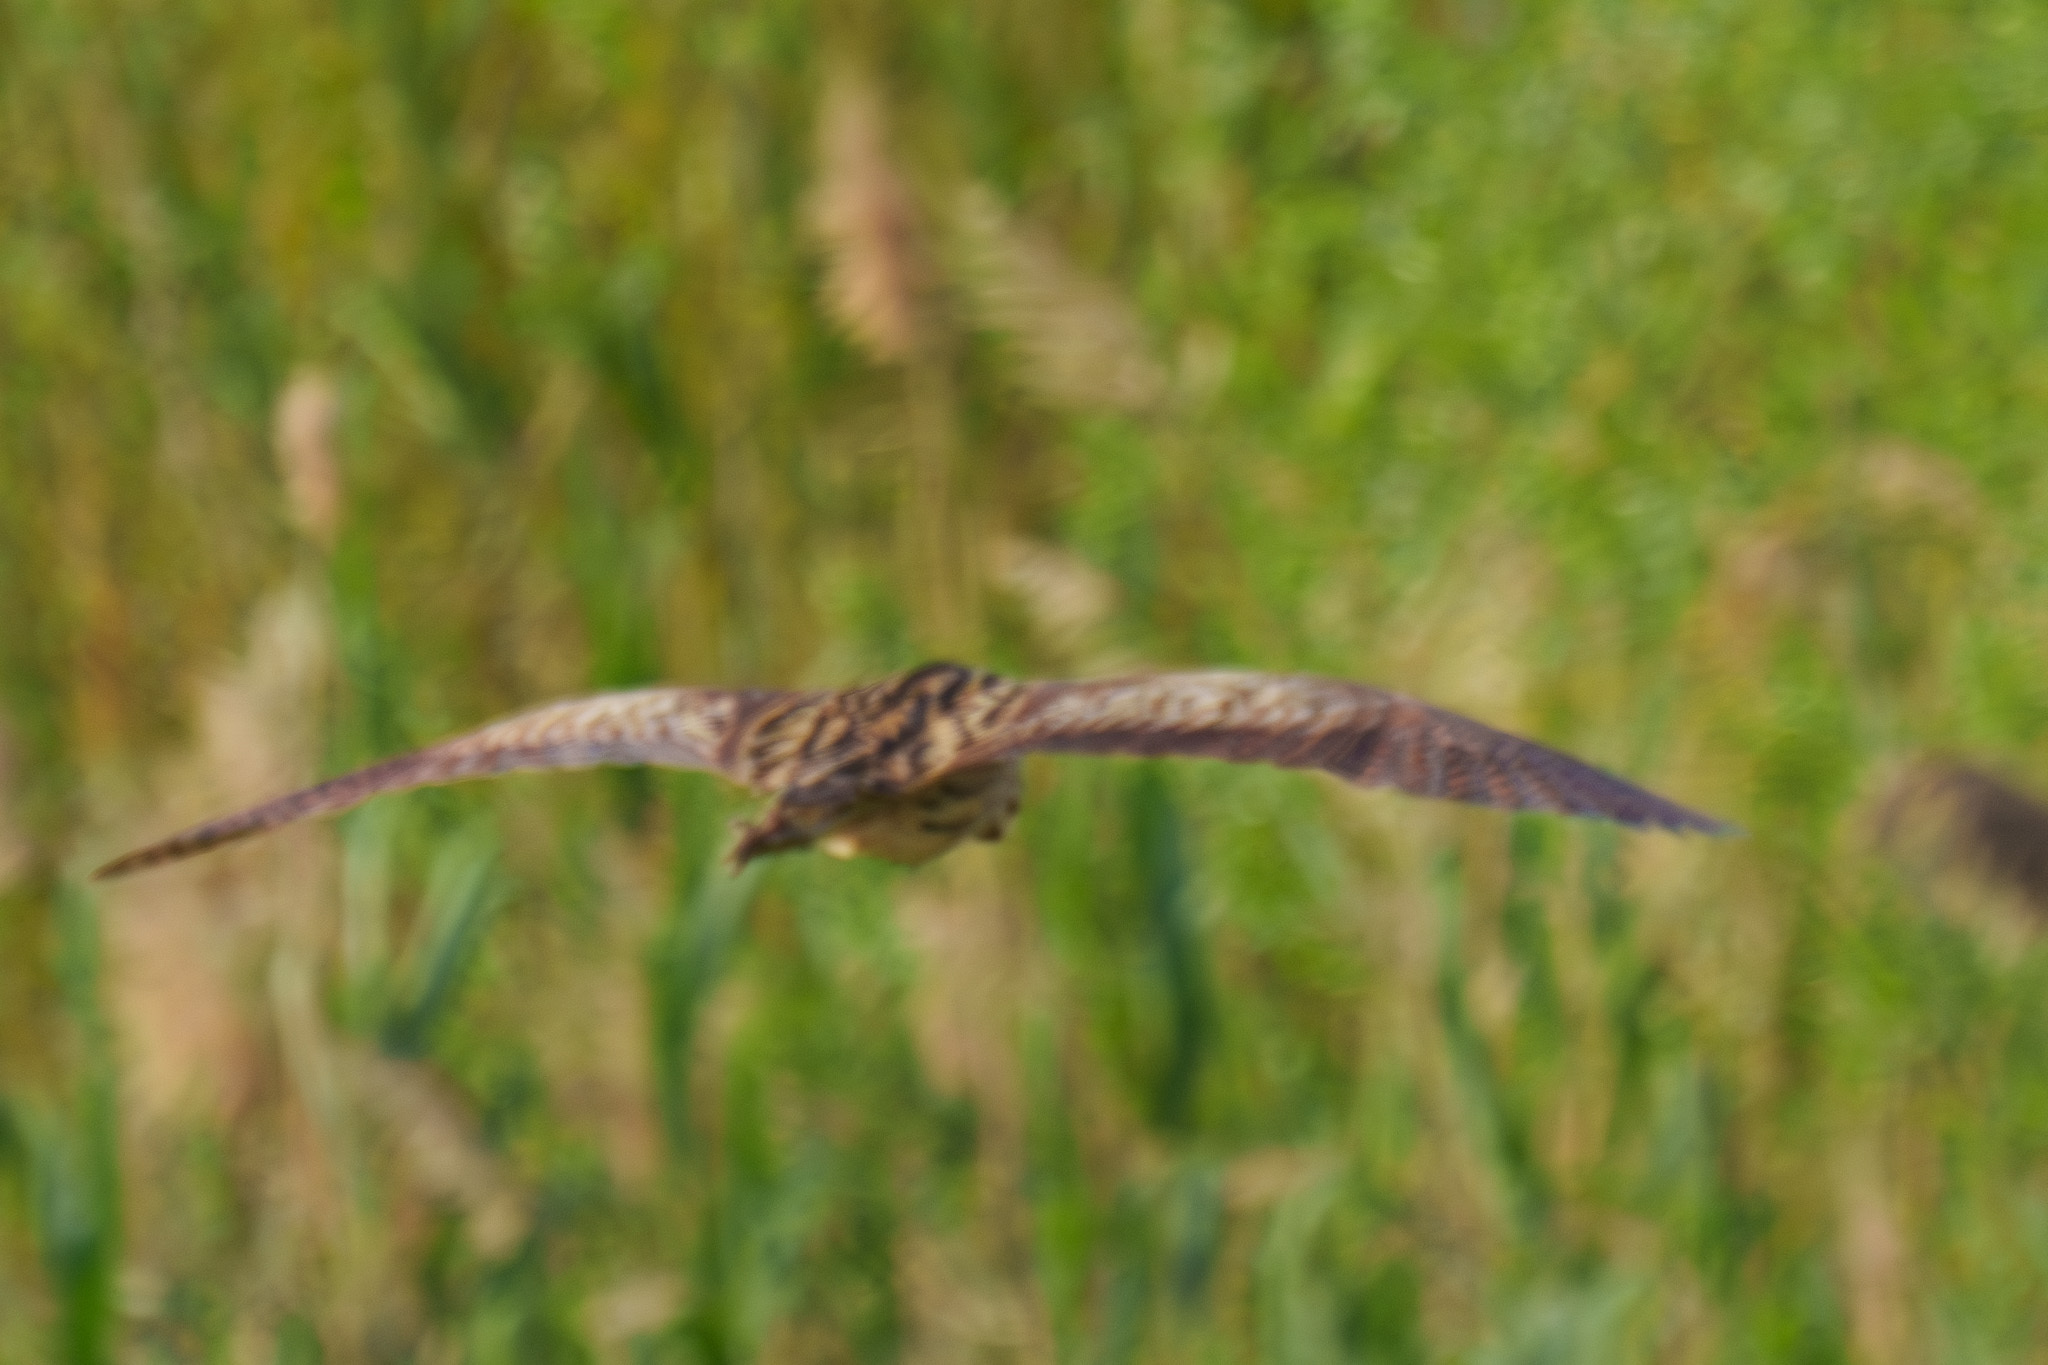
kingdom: Animalia
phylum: Chordata
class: Aves
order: Pelecaniformes
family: Ardeidae
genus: Botaurus
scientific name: Botaurus stellaris
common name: Eurasian bittern
